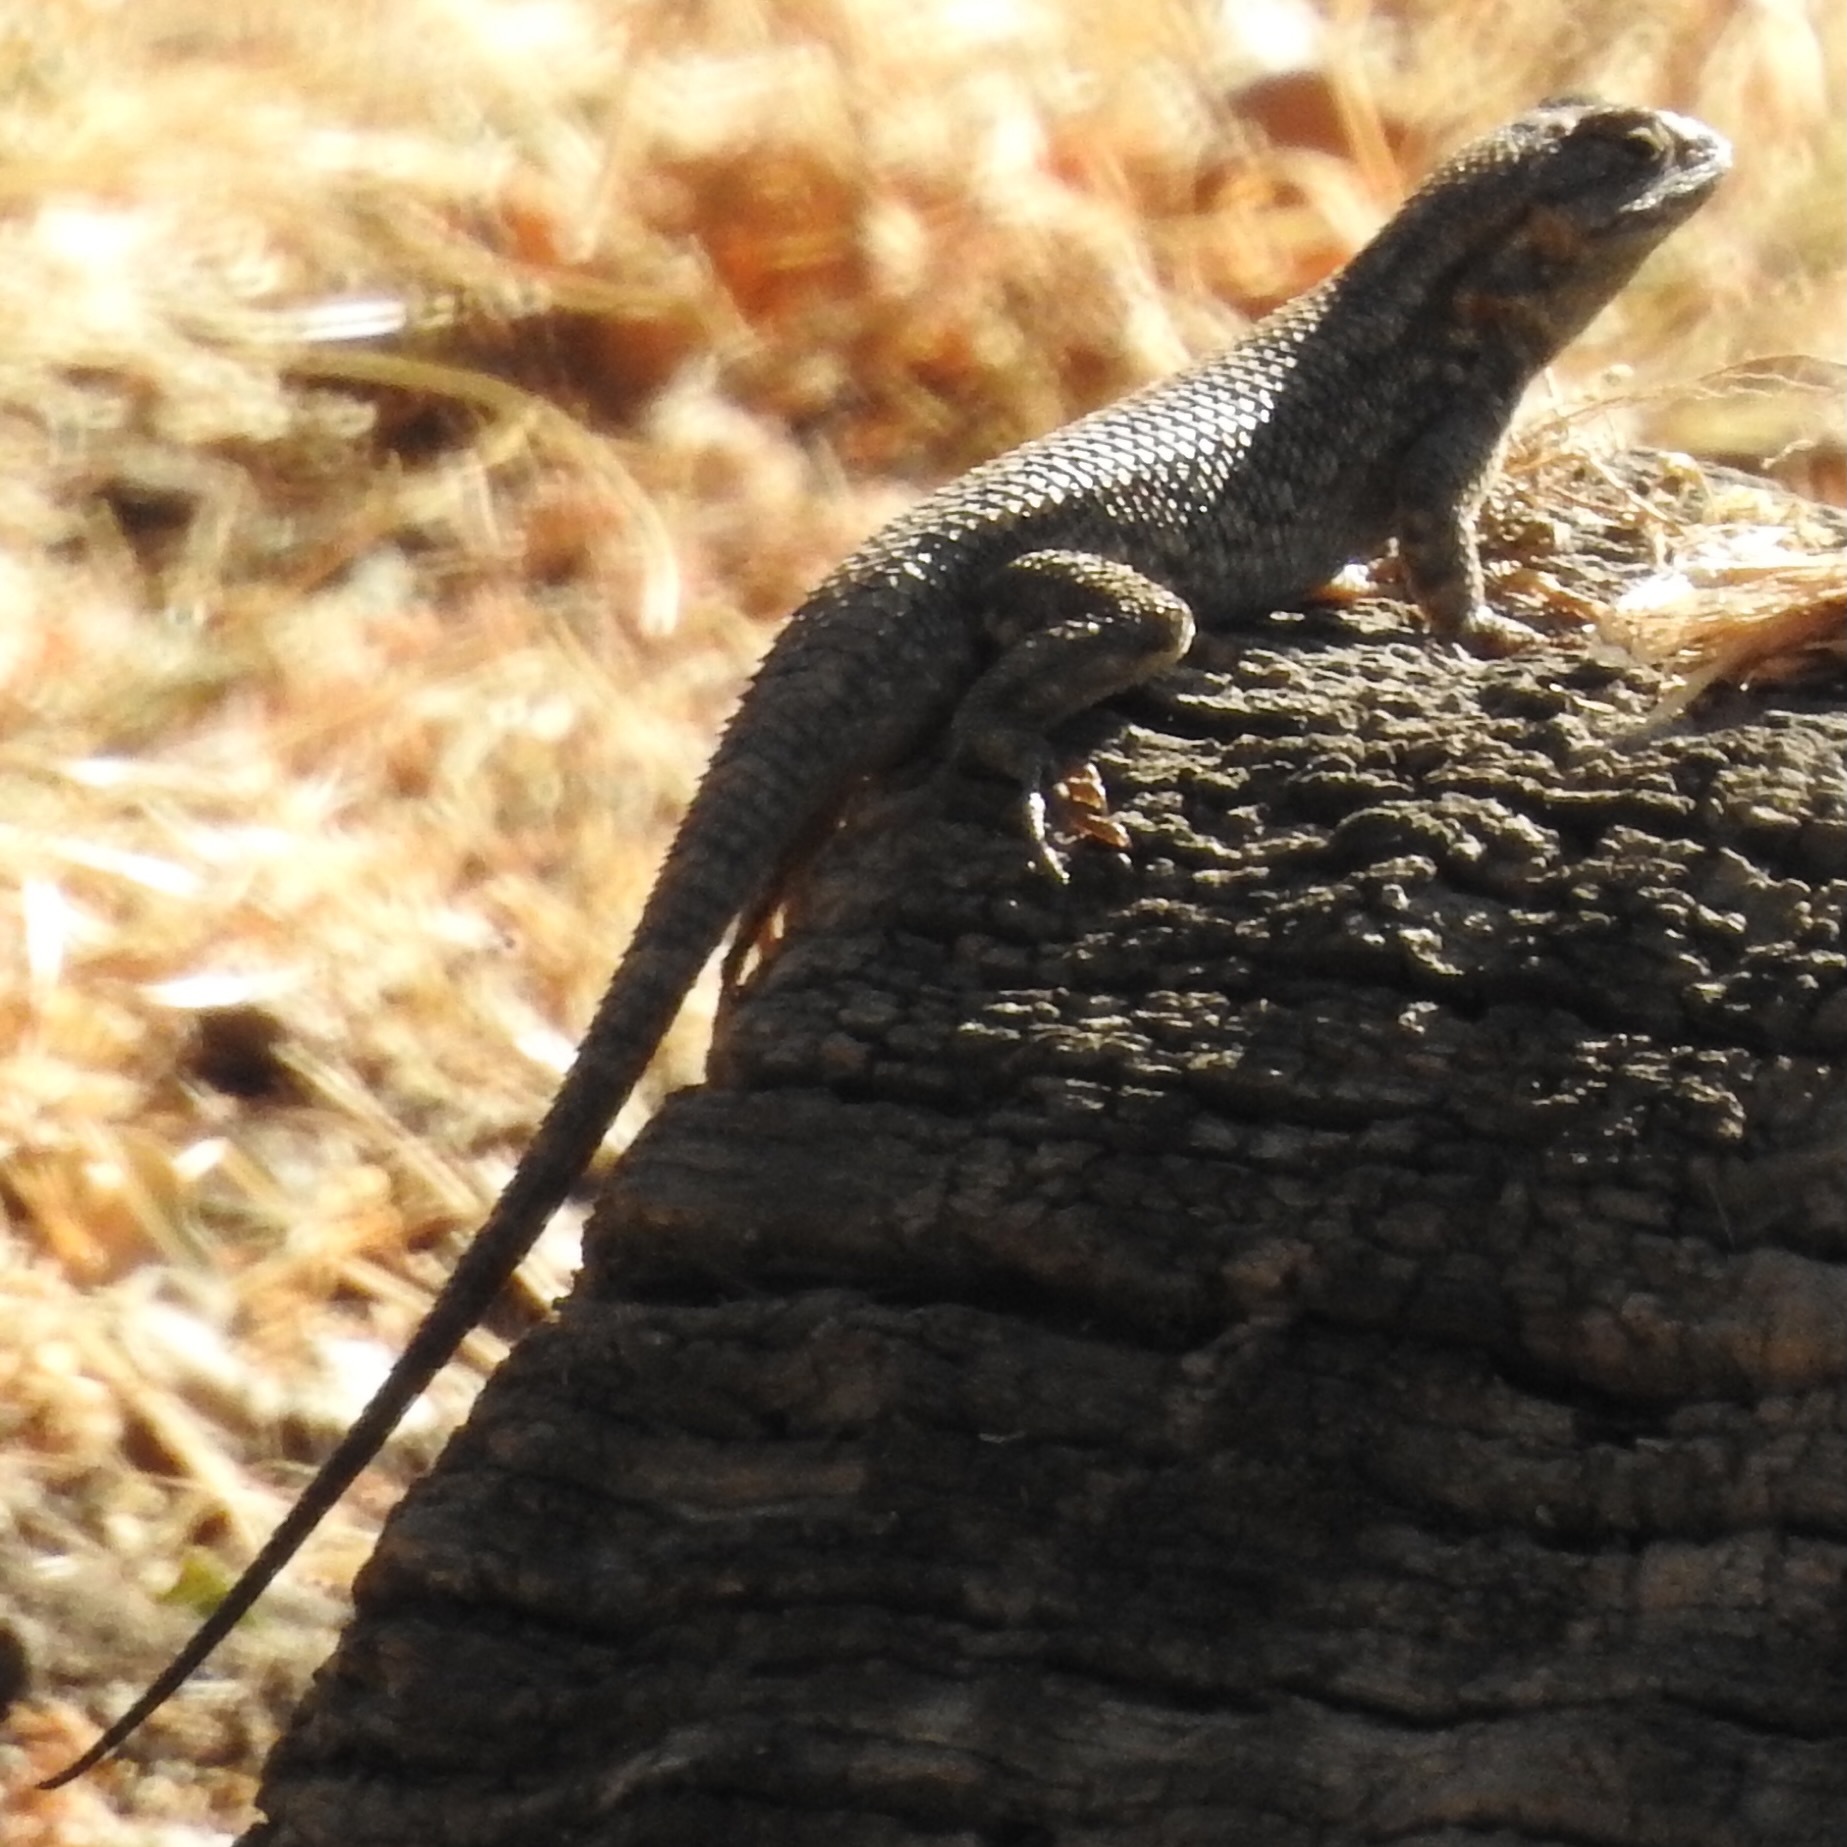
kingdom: Animalia
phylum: Chordata
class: Squamata
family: Phrynosomatidae
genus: Sceloporus
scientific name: Sceloporus occidentalis
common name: Western fence lizard
